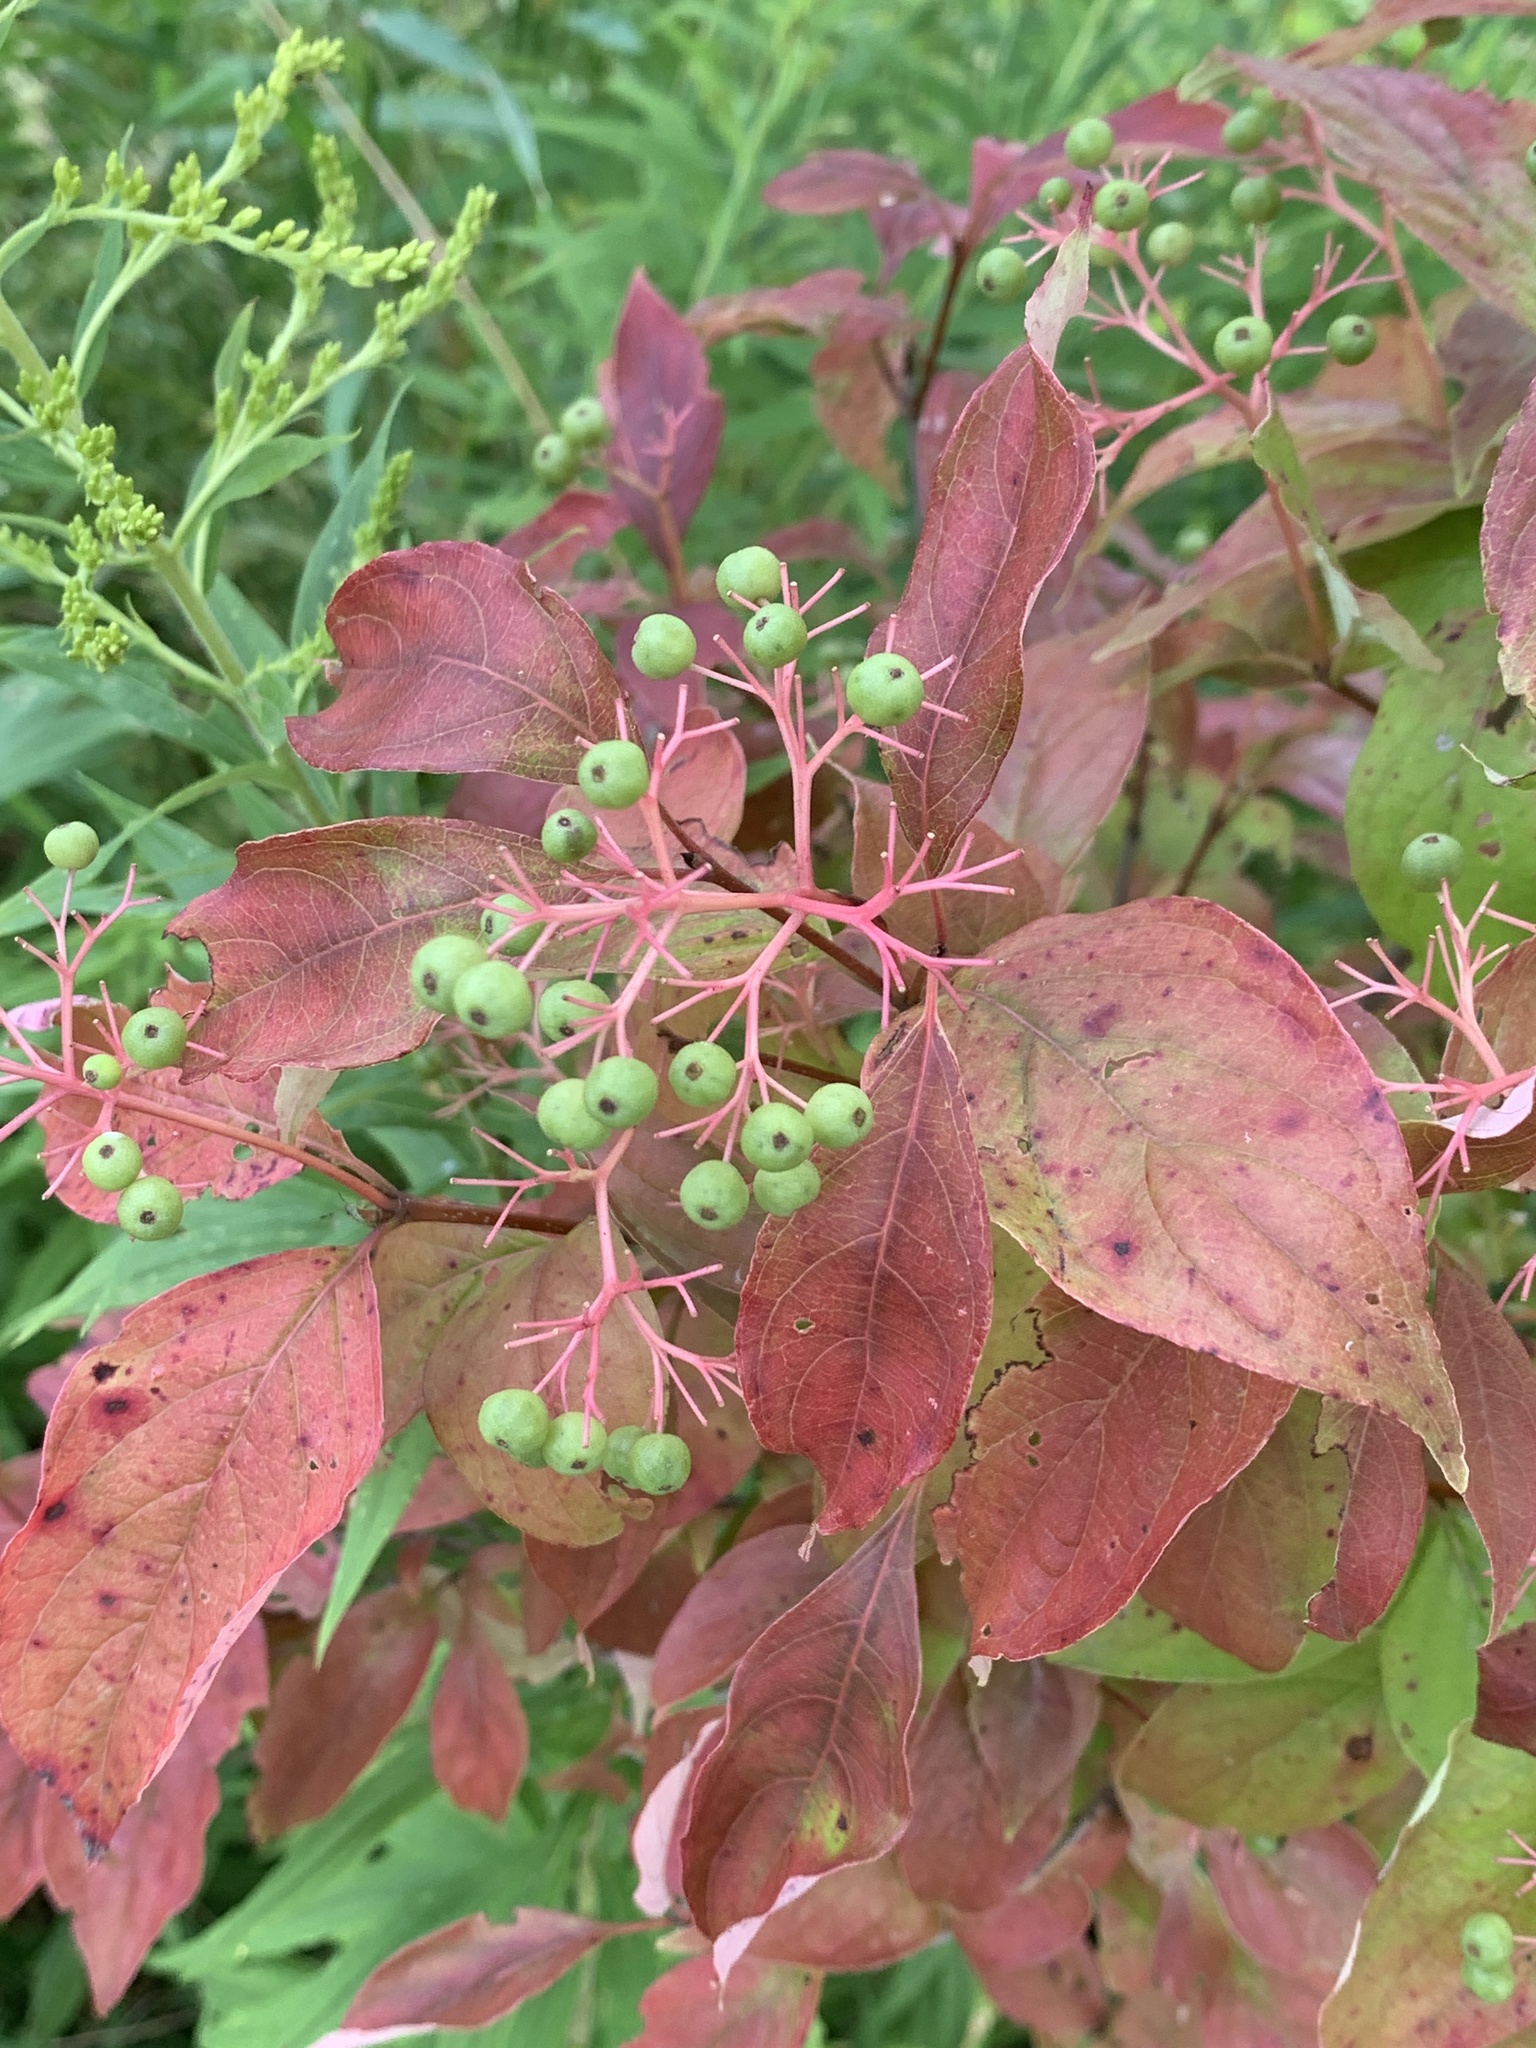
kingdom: Plantae
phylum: Tracheophyta
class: Magnoliopsida
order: Cornales
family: Cornaceae
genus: Cornus
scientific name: Cornus racemosa
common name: Panicled dogwood
